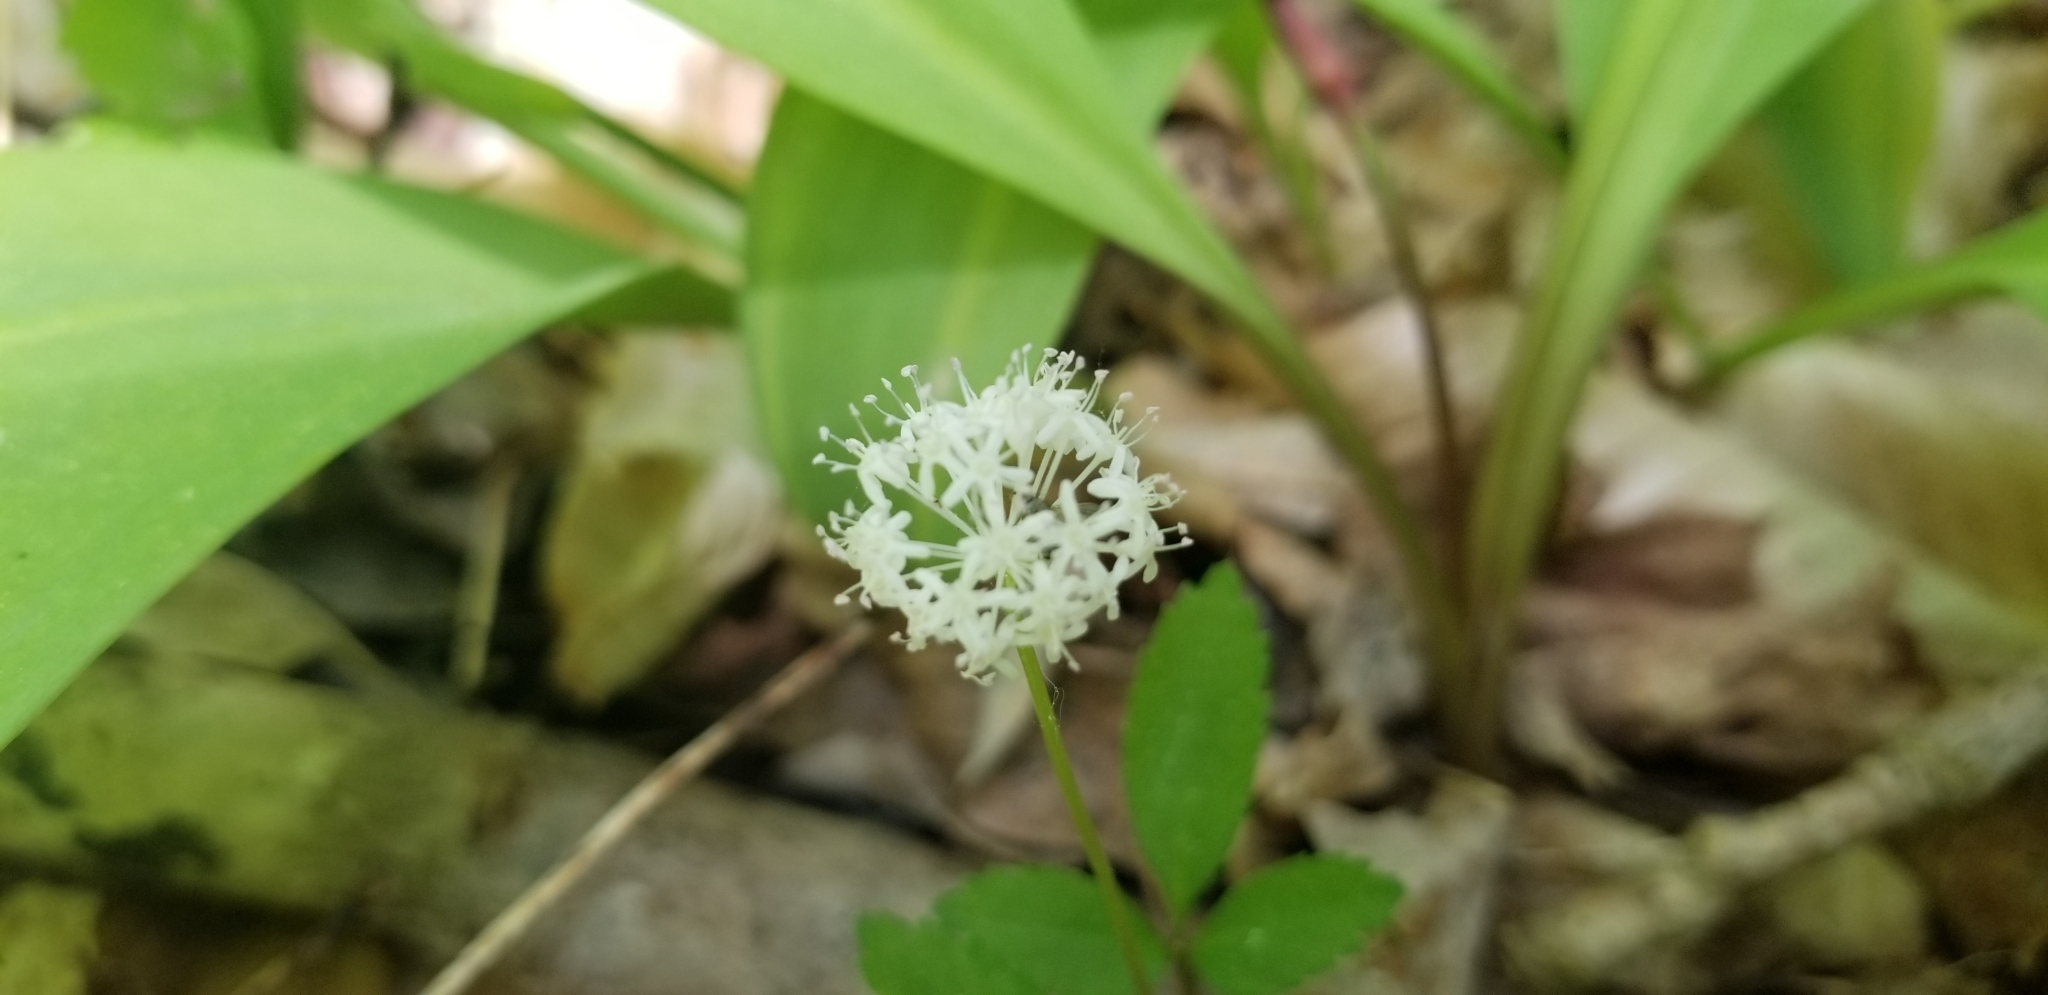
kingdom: Plantae
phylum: Tracheophyta
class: Magnoliopsida
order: Apiales
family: Araliaceae
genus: Panax
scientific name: Panax trifolius
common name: Dwarf ginseng
